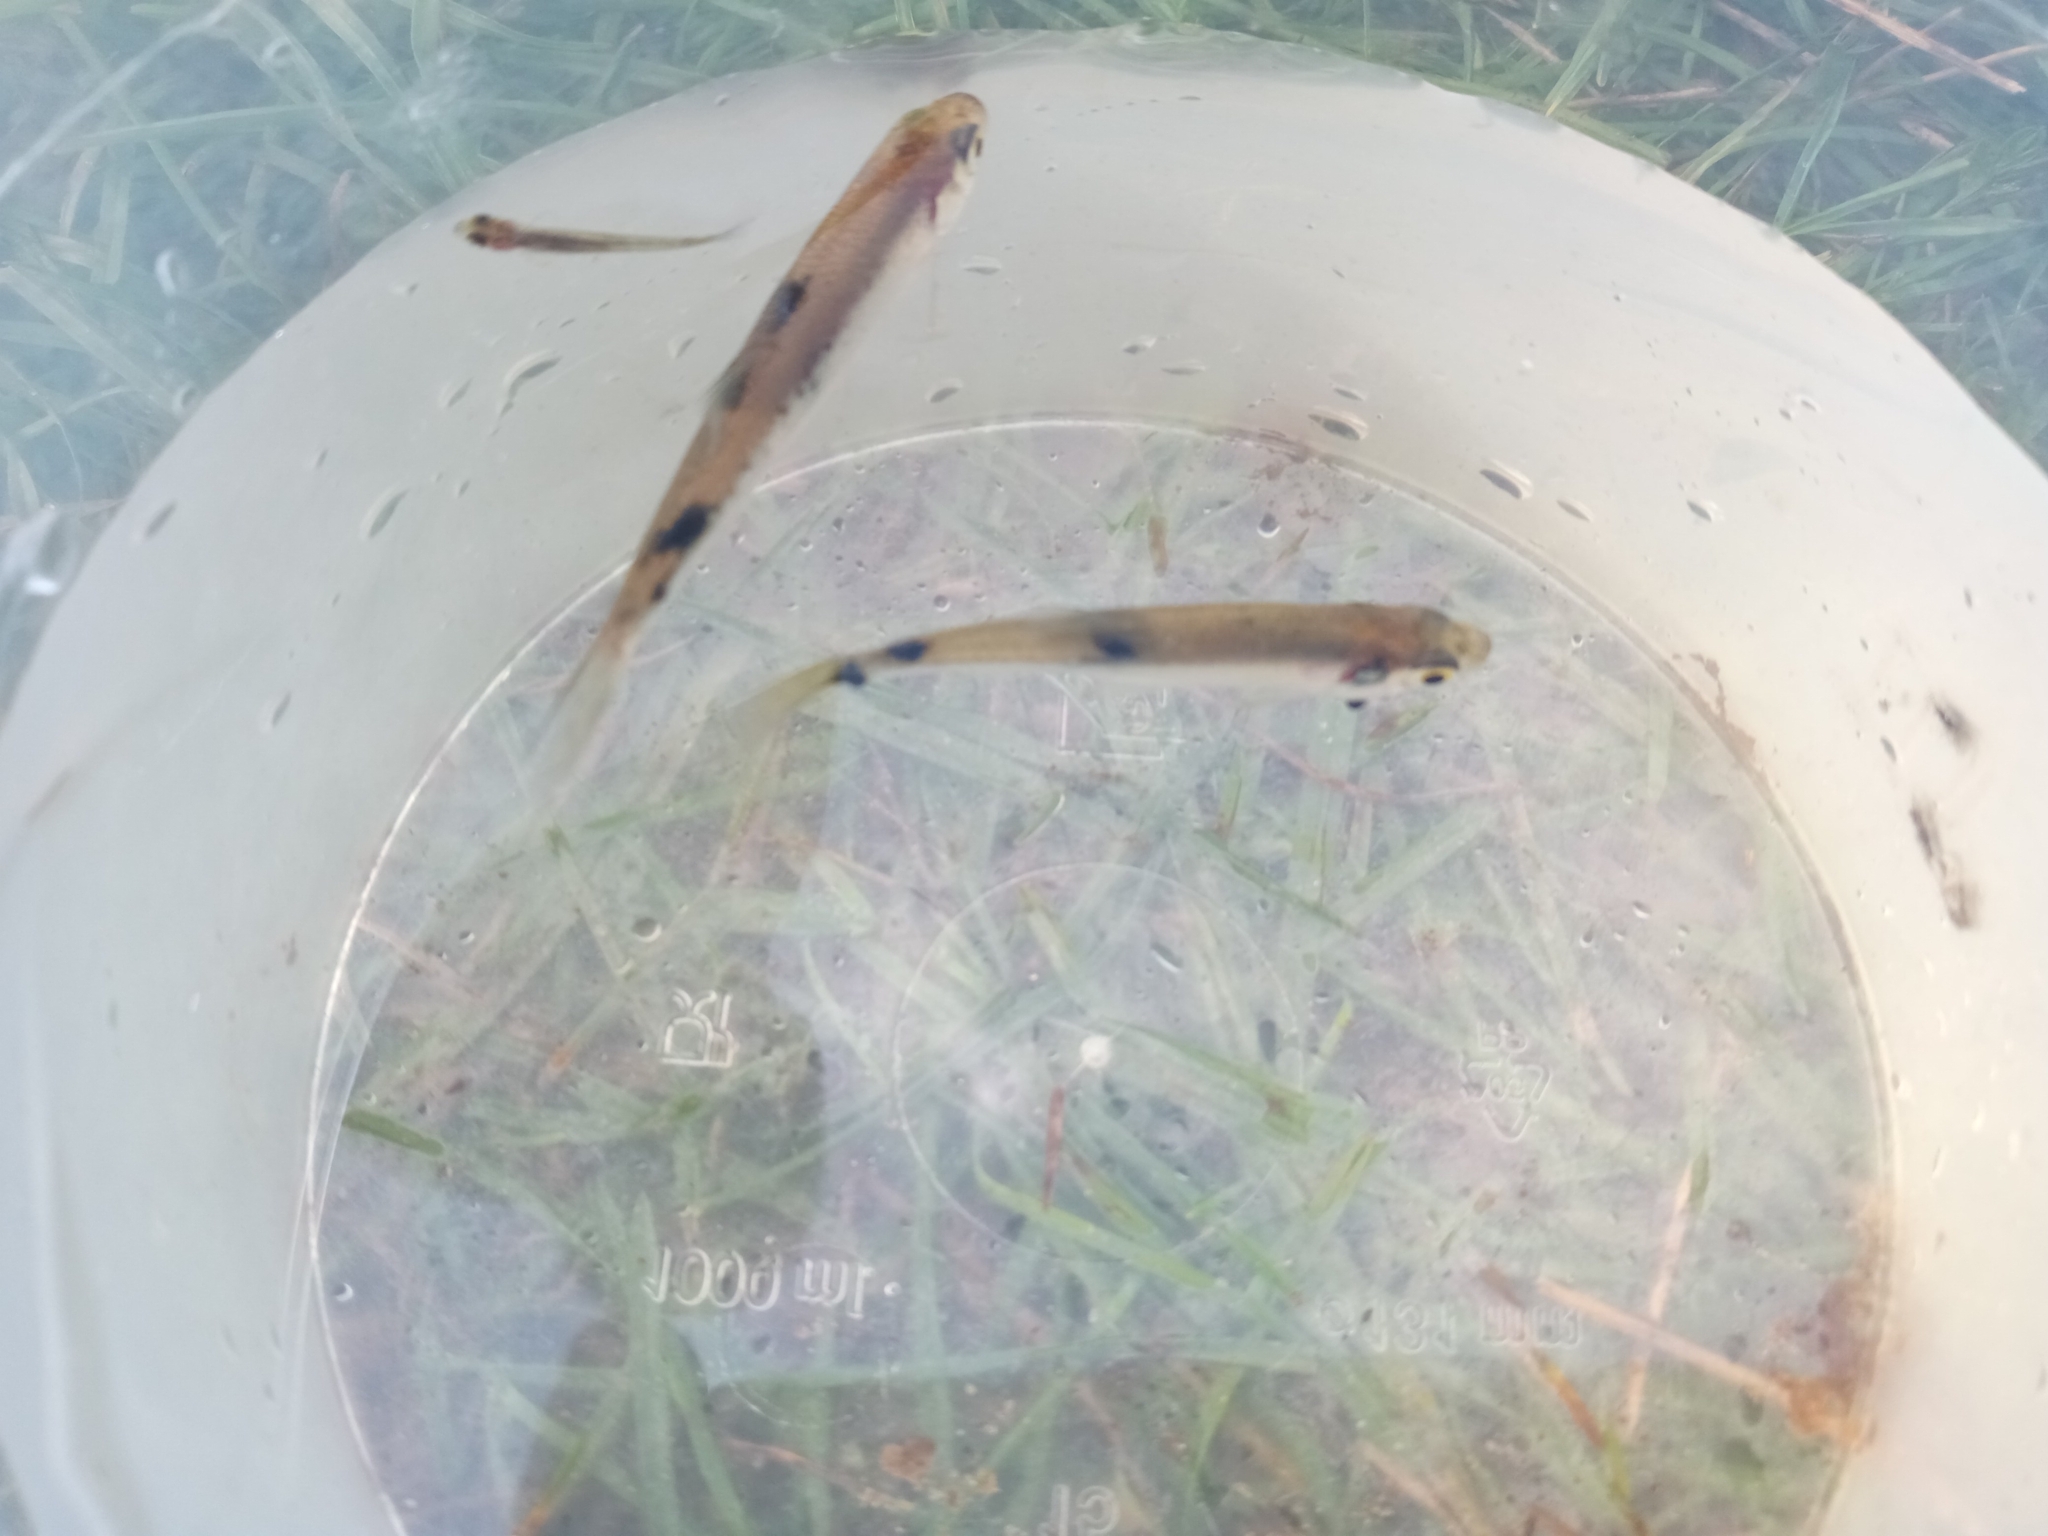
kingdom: Animalia
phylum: Chordata
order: Cypriniformes
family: Cyprinidae
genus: Alburnus
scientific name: Alburnus alburnus
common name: Bleak
